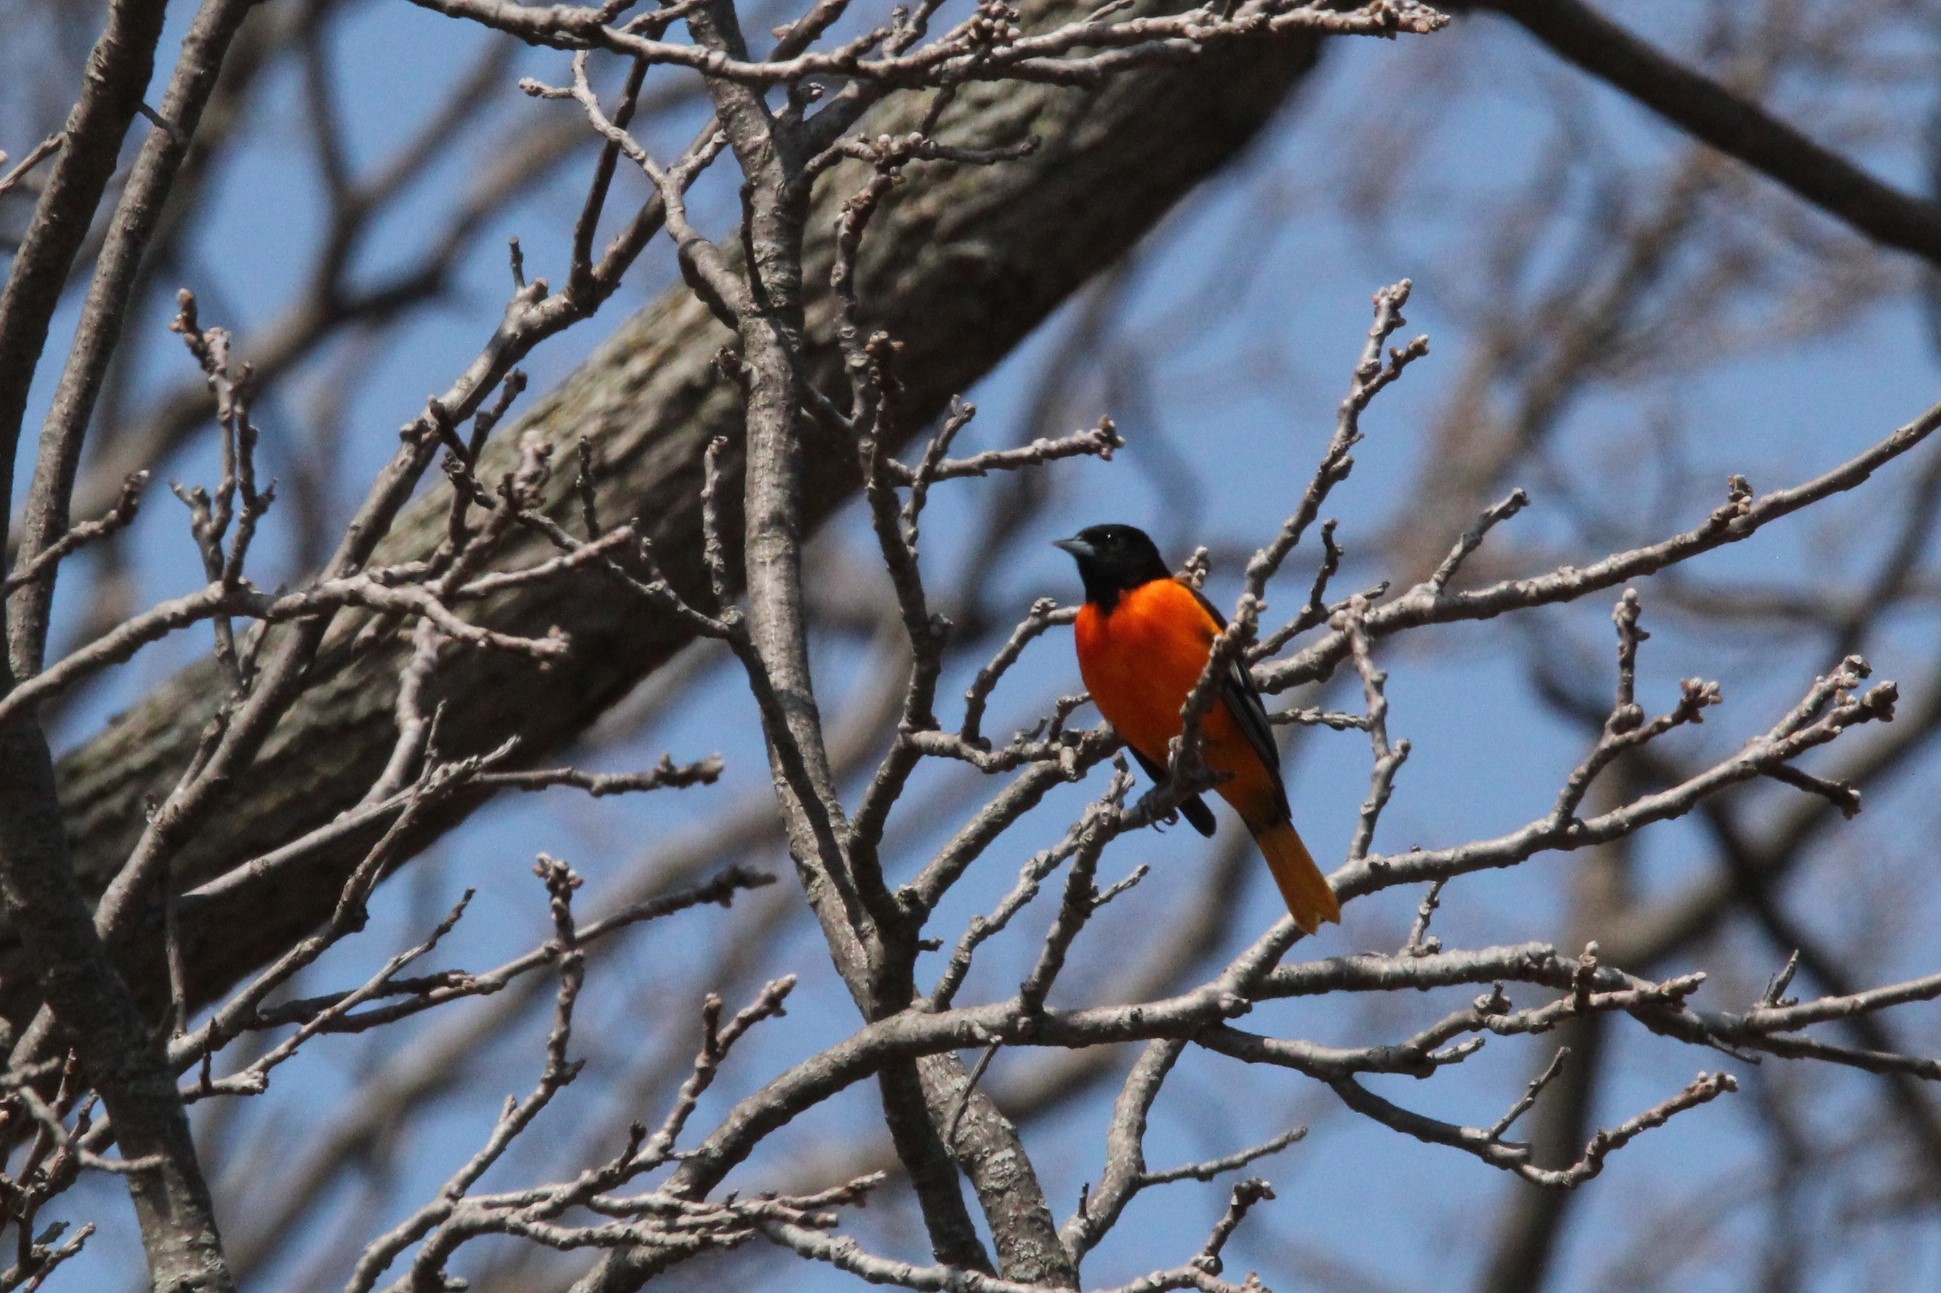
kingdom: Animalia
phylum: Chordata
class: Aves
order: Passeriformes
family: Icteridae
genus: Icterus
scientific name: Icterus galbula
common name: Baltimore oriole
